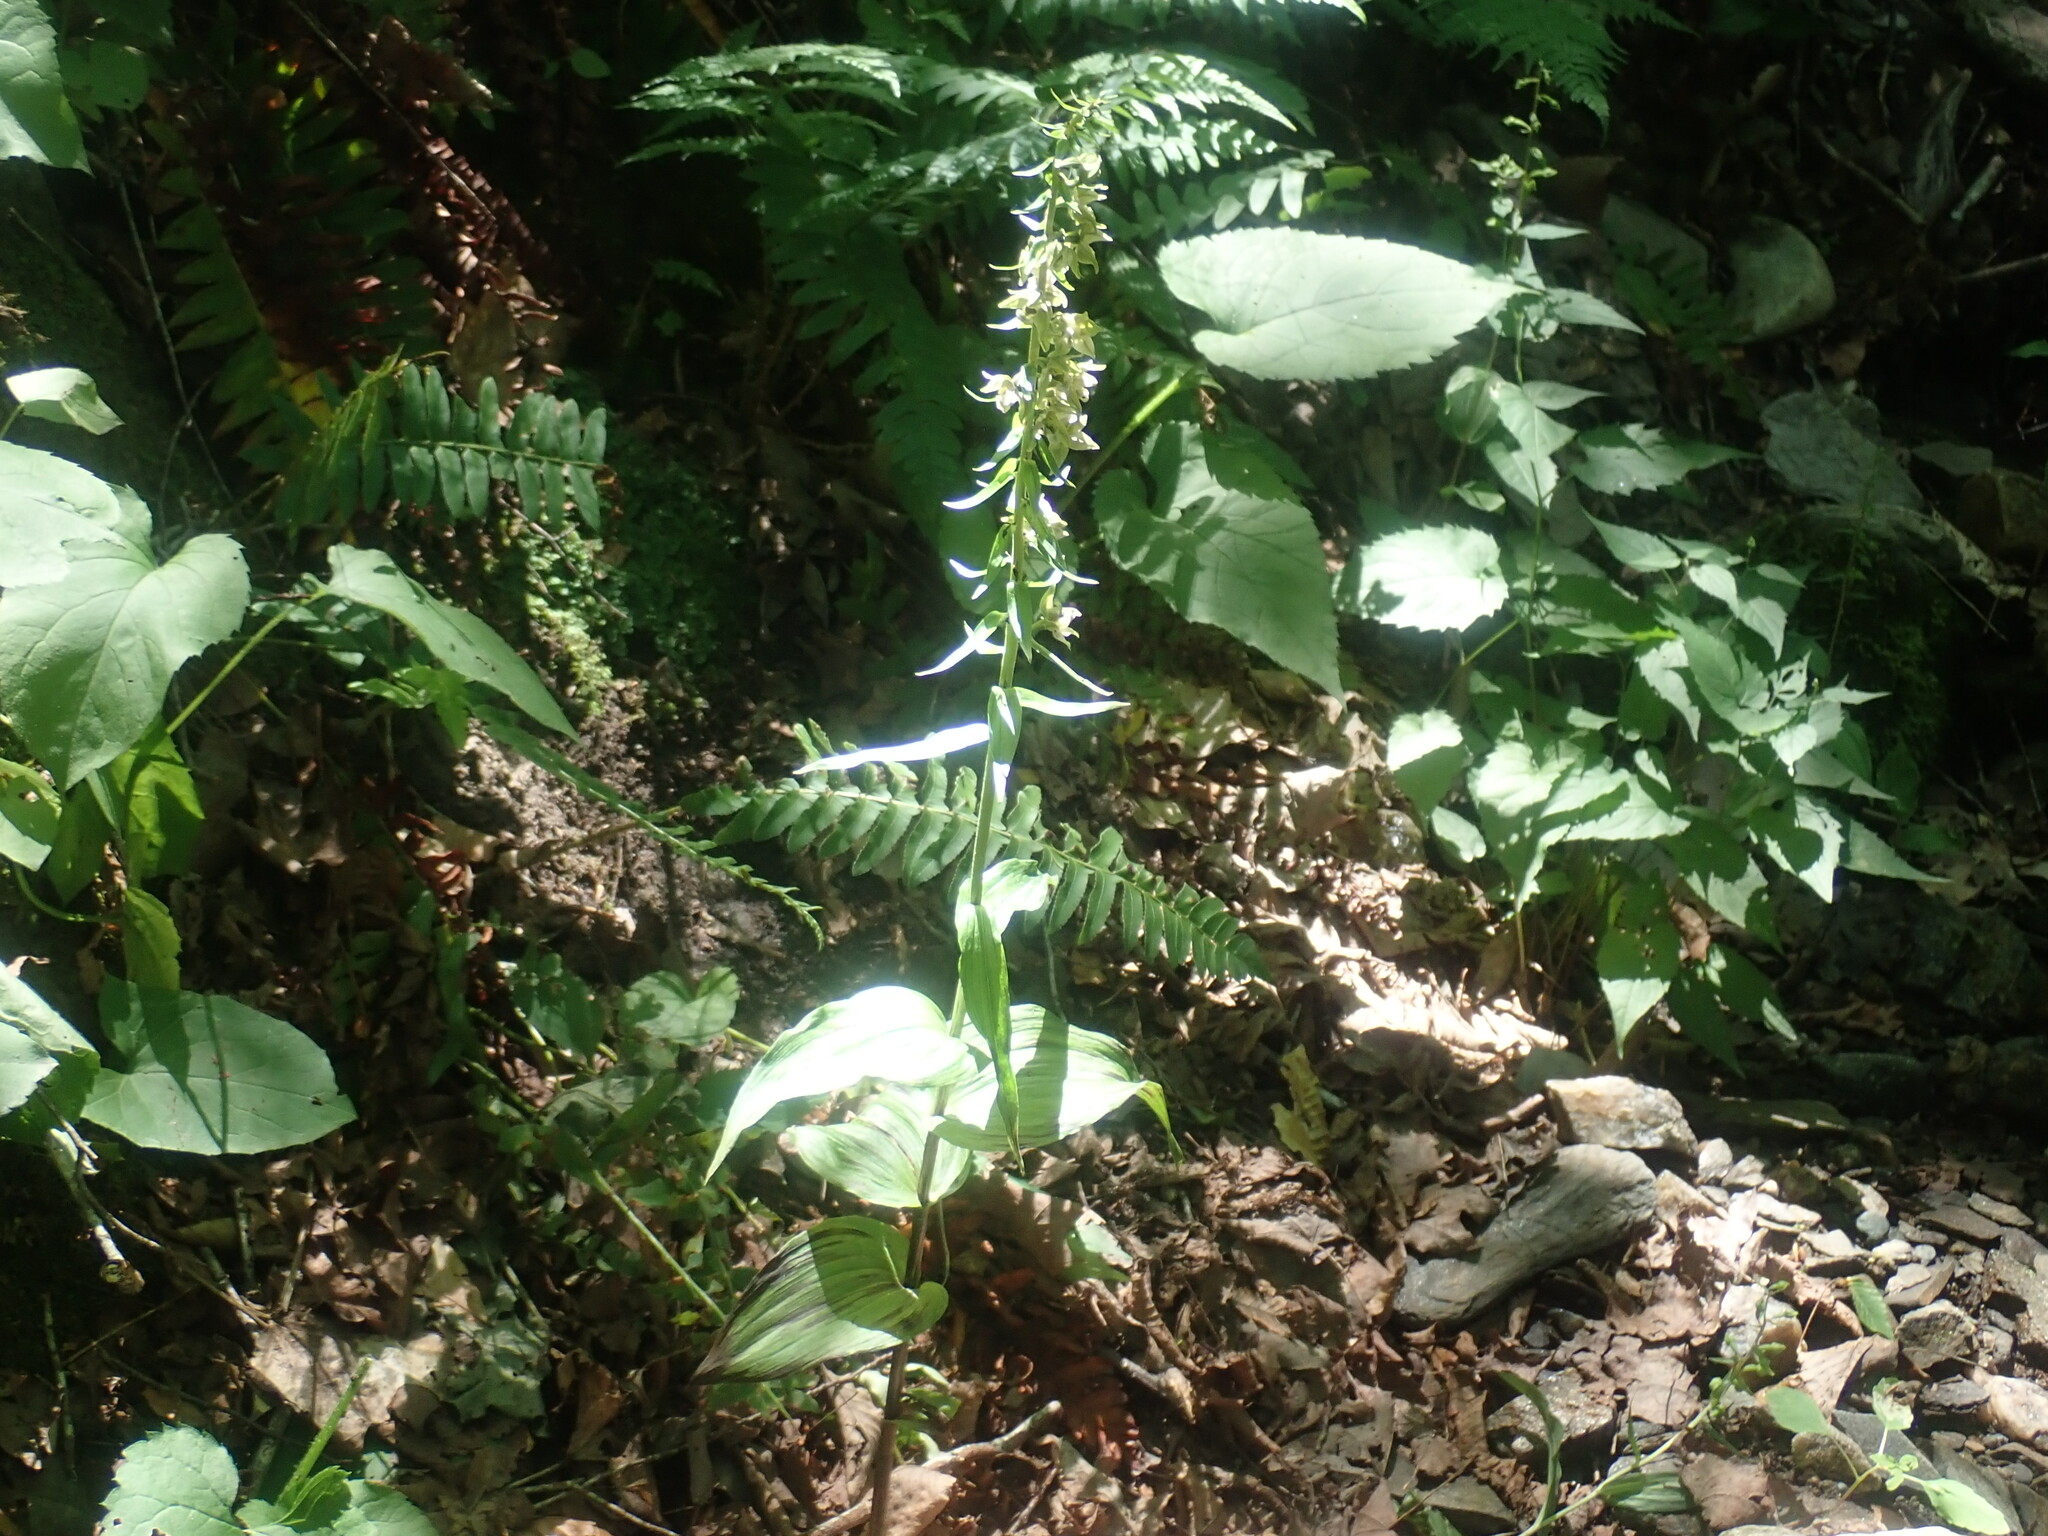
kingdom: Plantae
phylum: Tracheophyta
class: Liliopsida
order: Asparagales
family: Orchidaceae
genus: Epipactis
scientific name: Epipactis helleborine
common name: Broad-leaved helleborine
